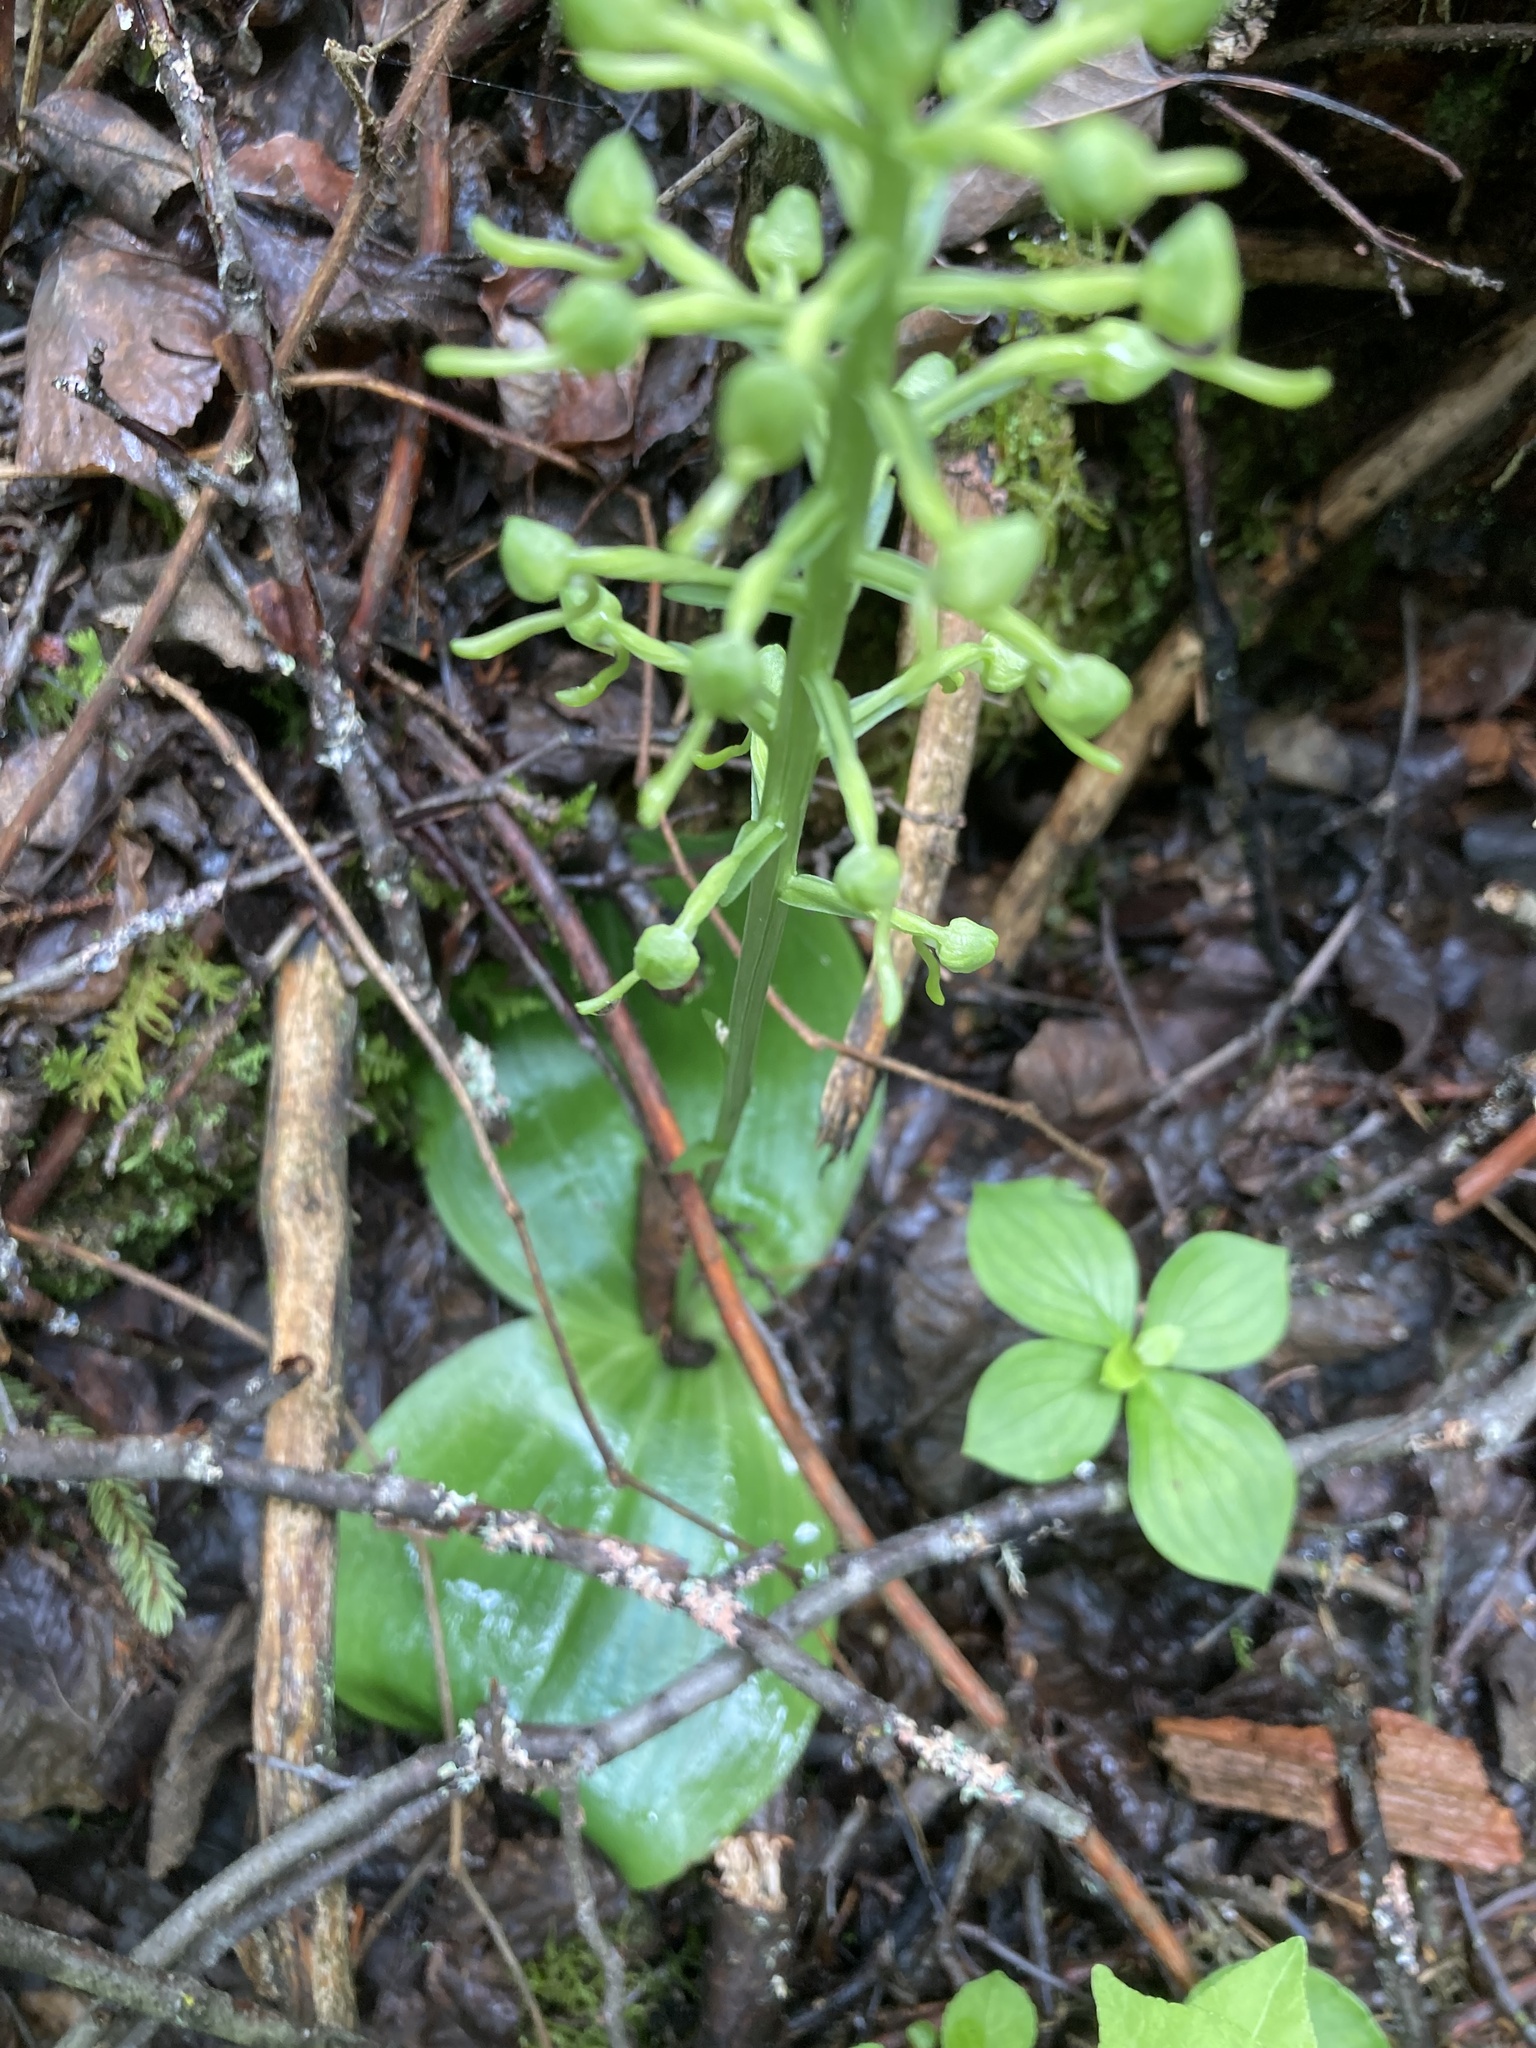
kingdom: Plantae
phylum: Tracheophyta
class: Liliopsida
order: Asparagales
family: Orchidaceae
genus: Platanthera
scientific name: Platanthera orbiculata
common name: Large round-leaved orchid
